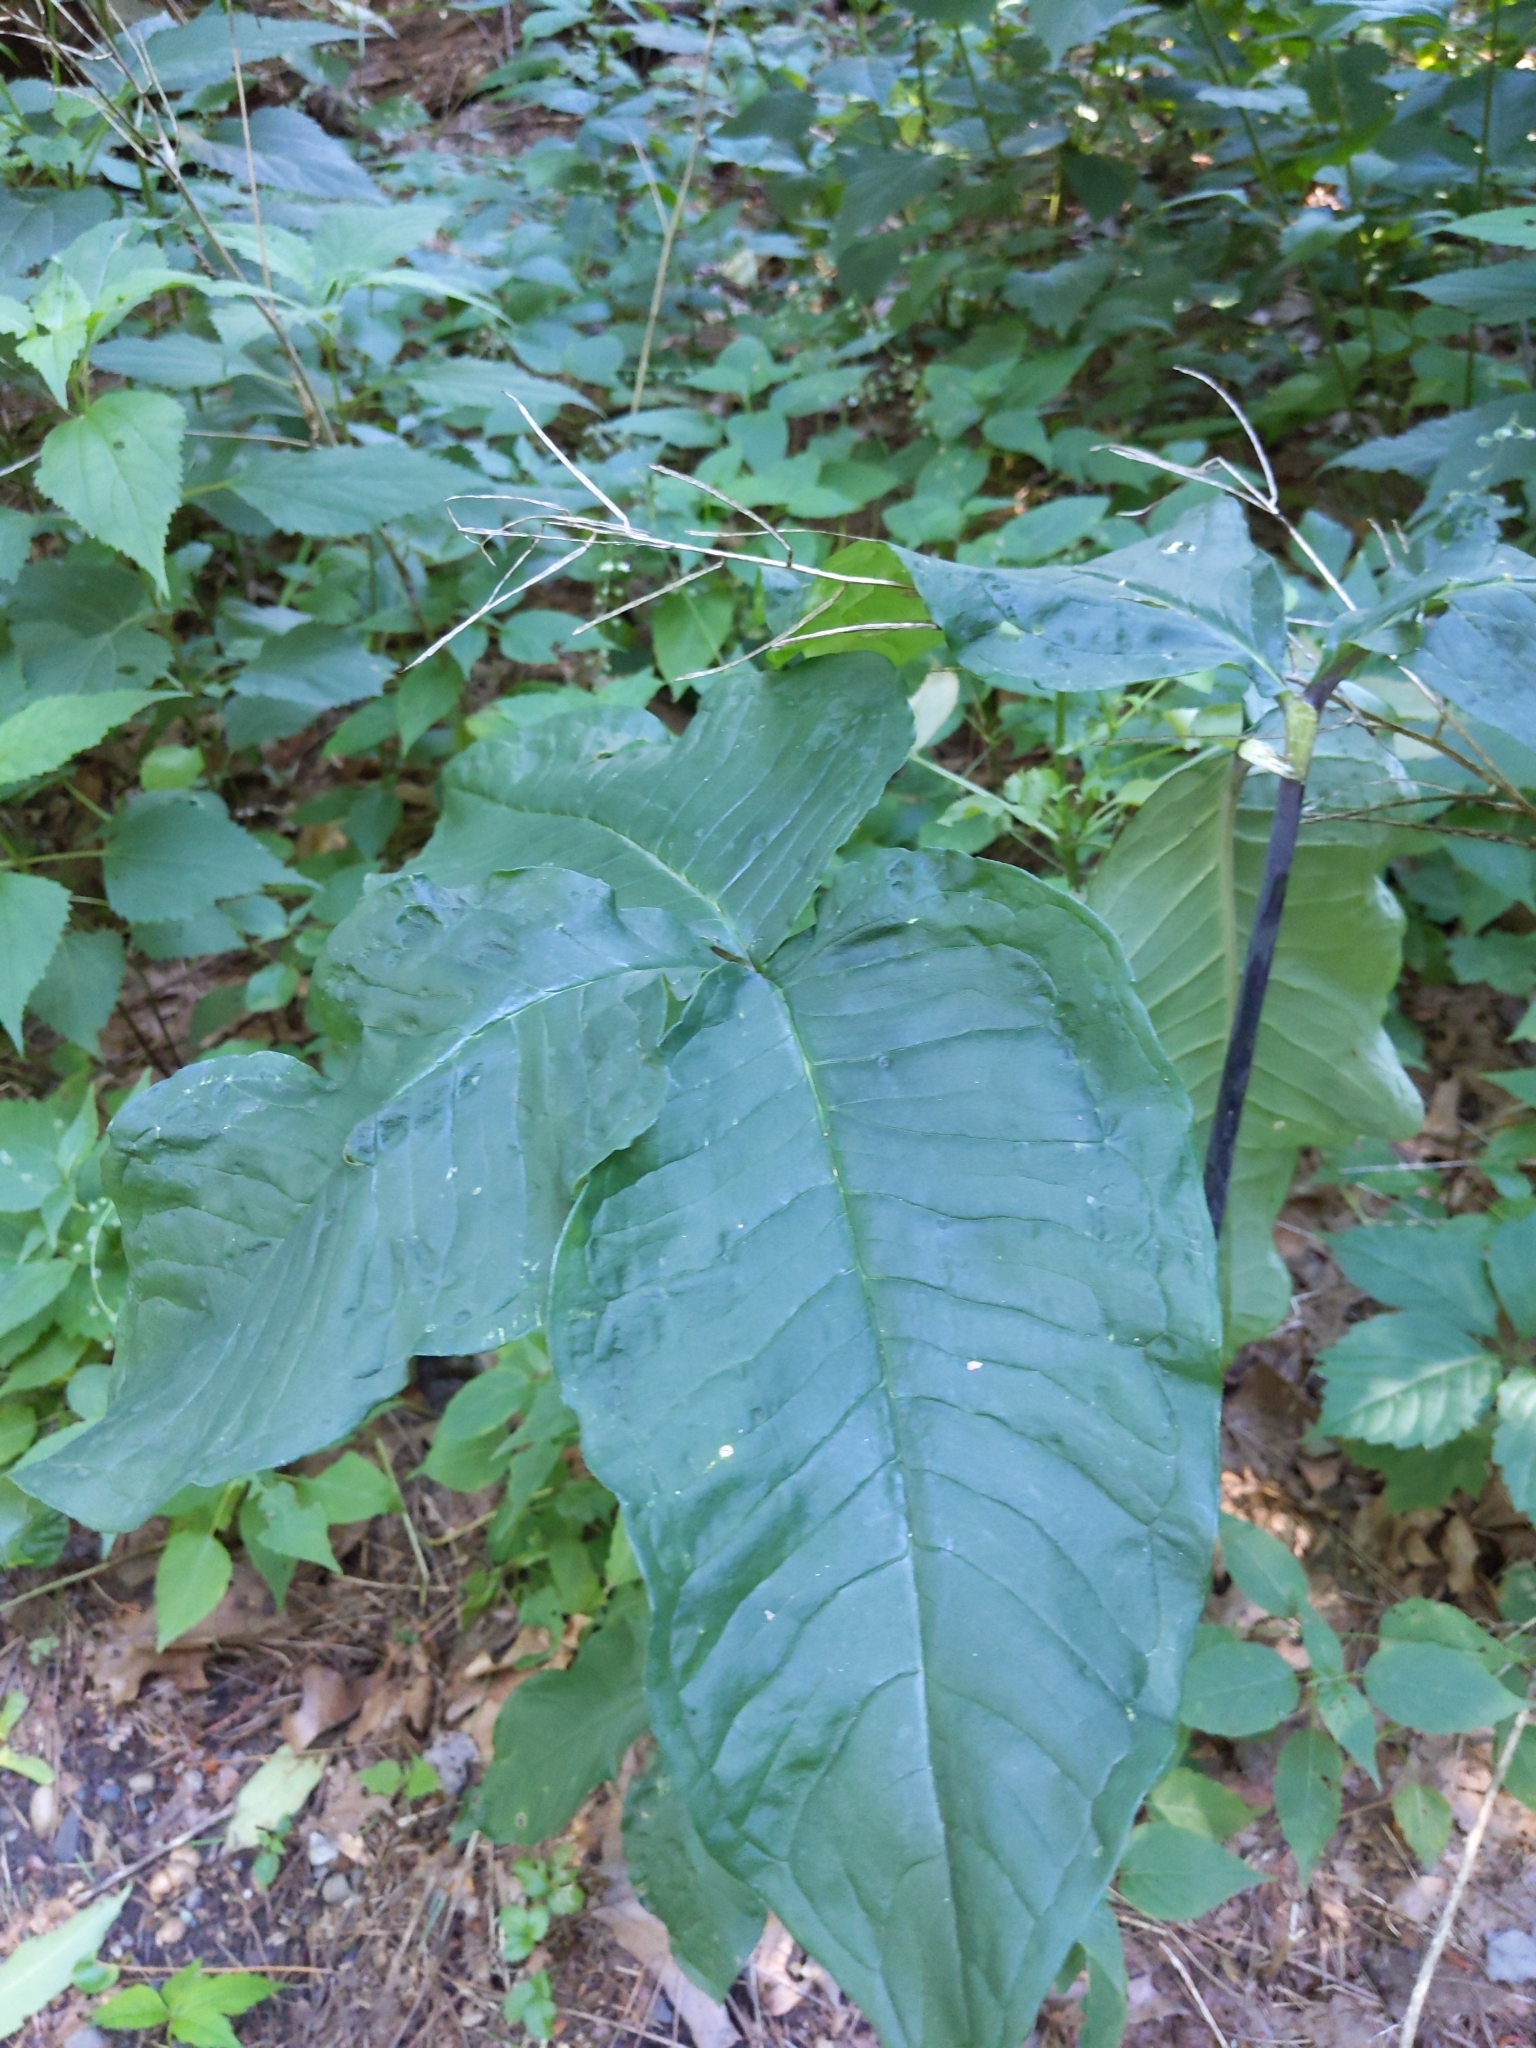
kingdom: Plantae
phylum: Tracheophyta
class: Liliopsida
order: Alismatales
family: Araceae
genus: Arisaema
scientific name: Arisaema triphyllum
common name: Jack-in-the-pulpit
